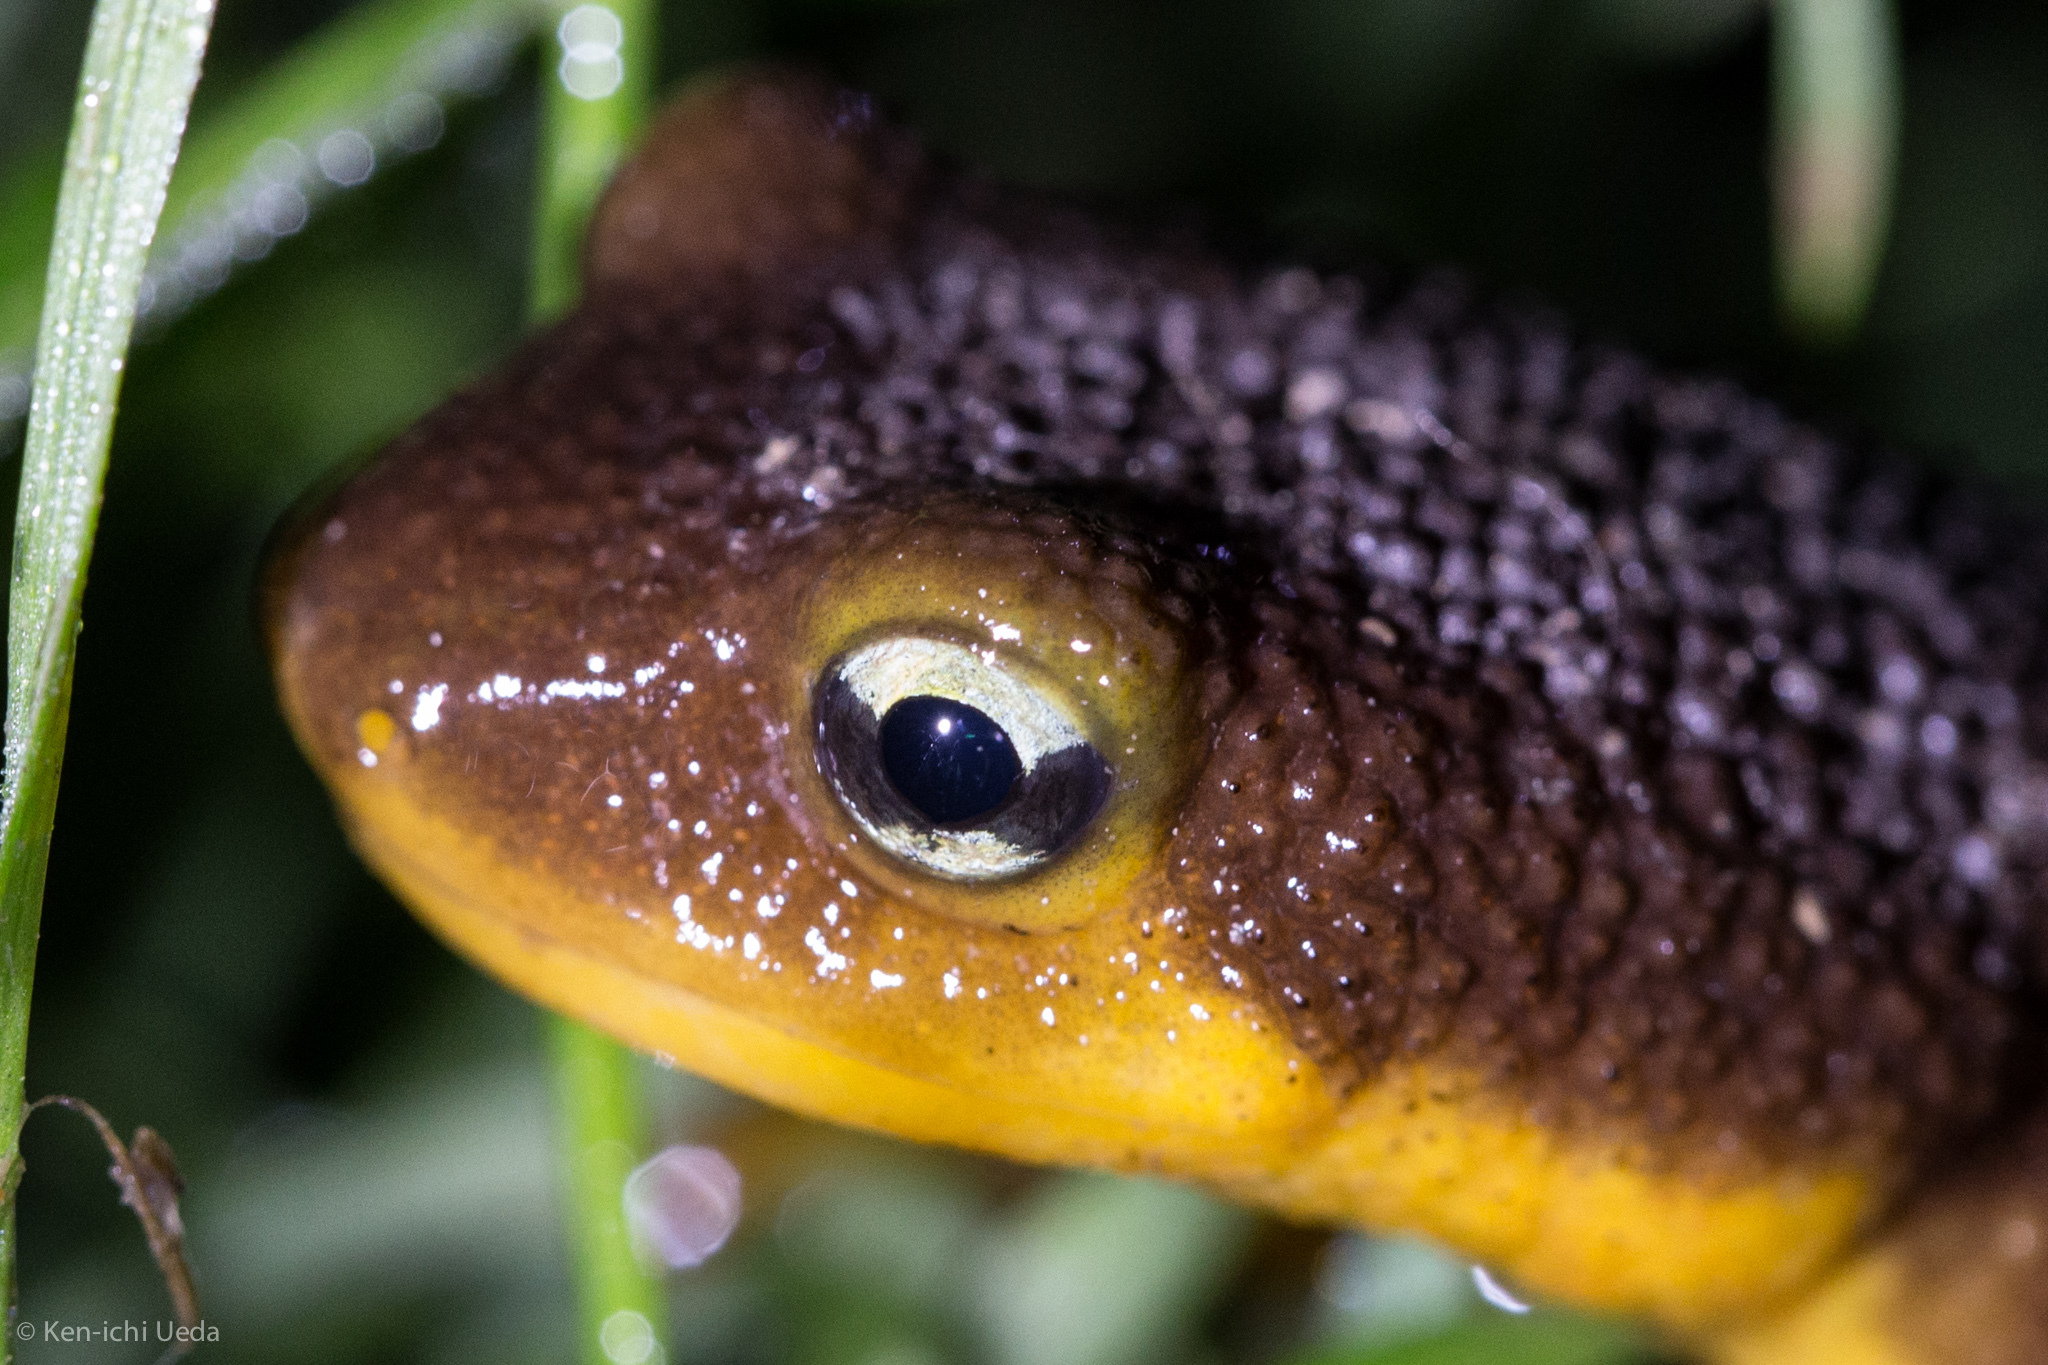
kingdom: Animalia
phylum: Chordata
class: Amphibia
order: Caudata
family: Salamandridae
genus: Taricha
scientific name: Taricha torosa
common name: California newt
